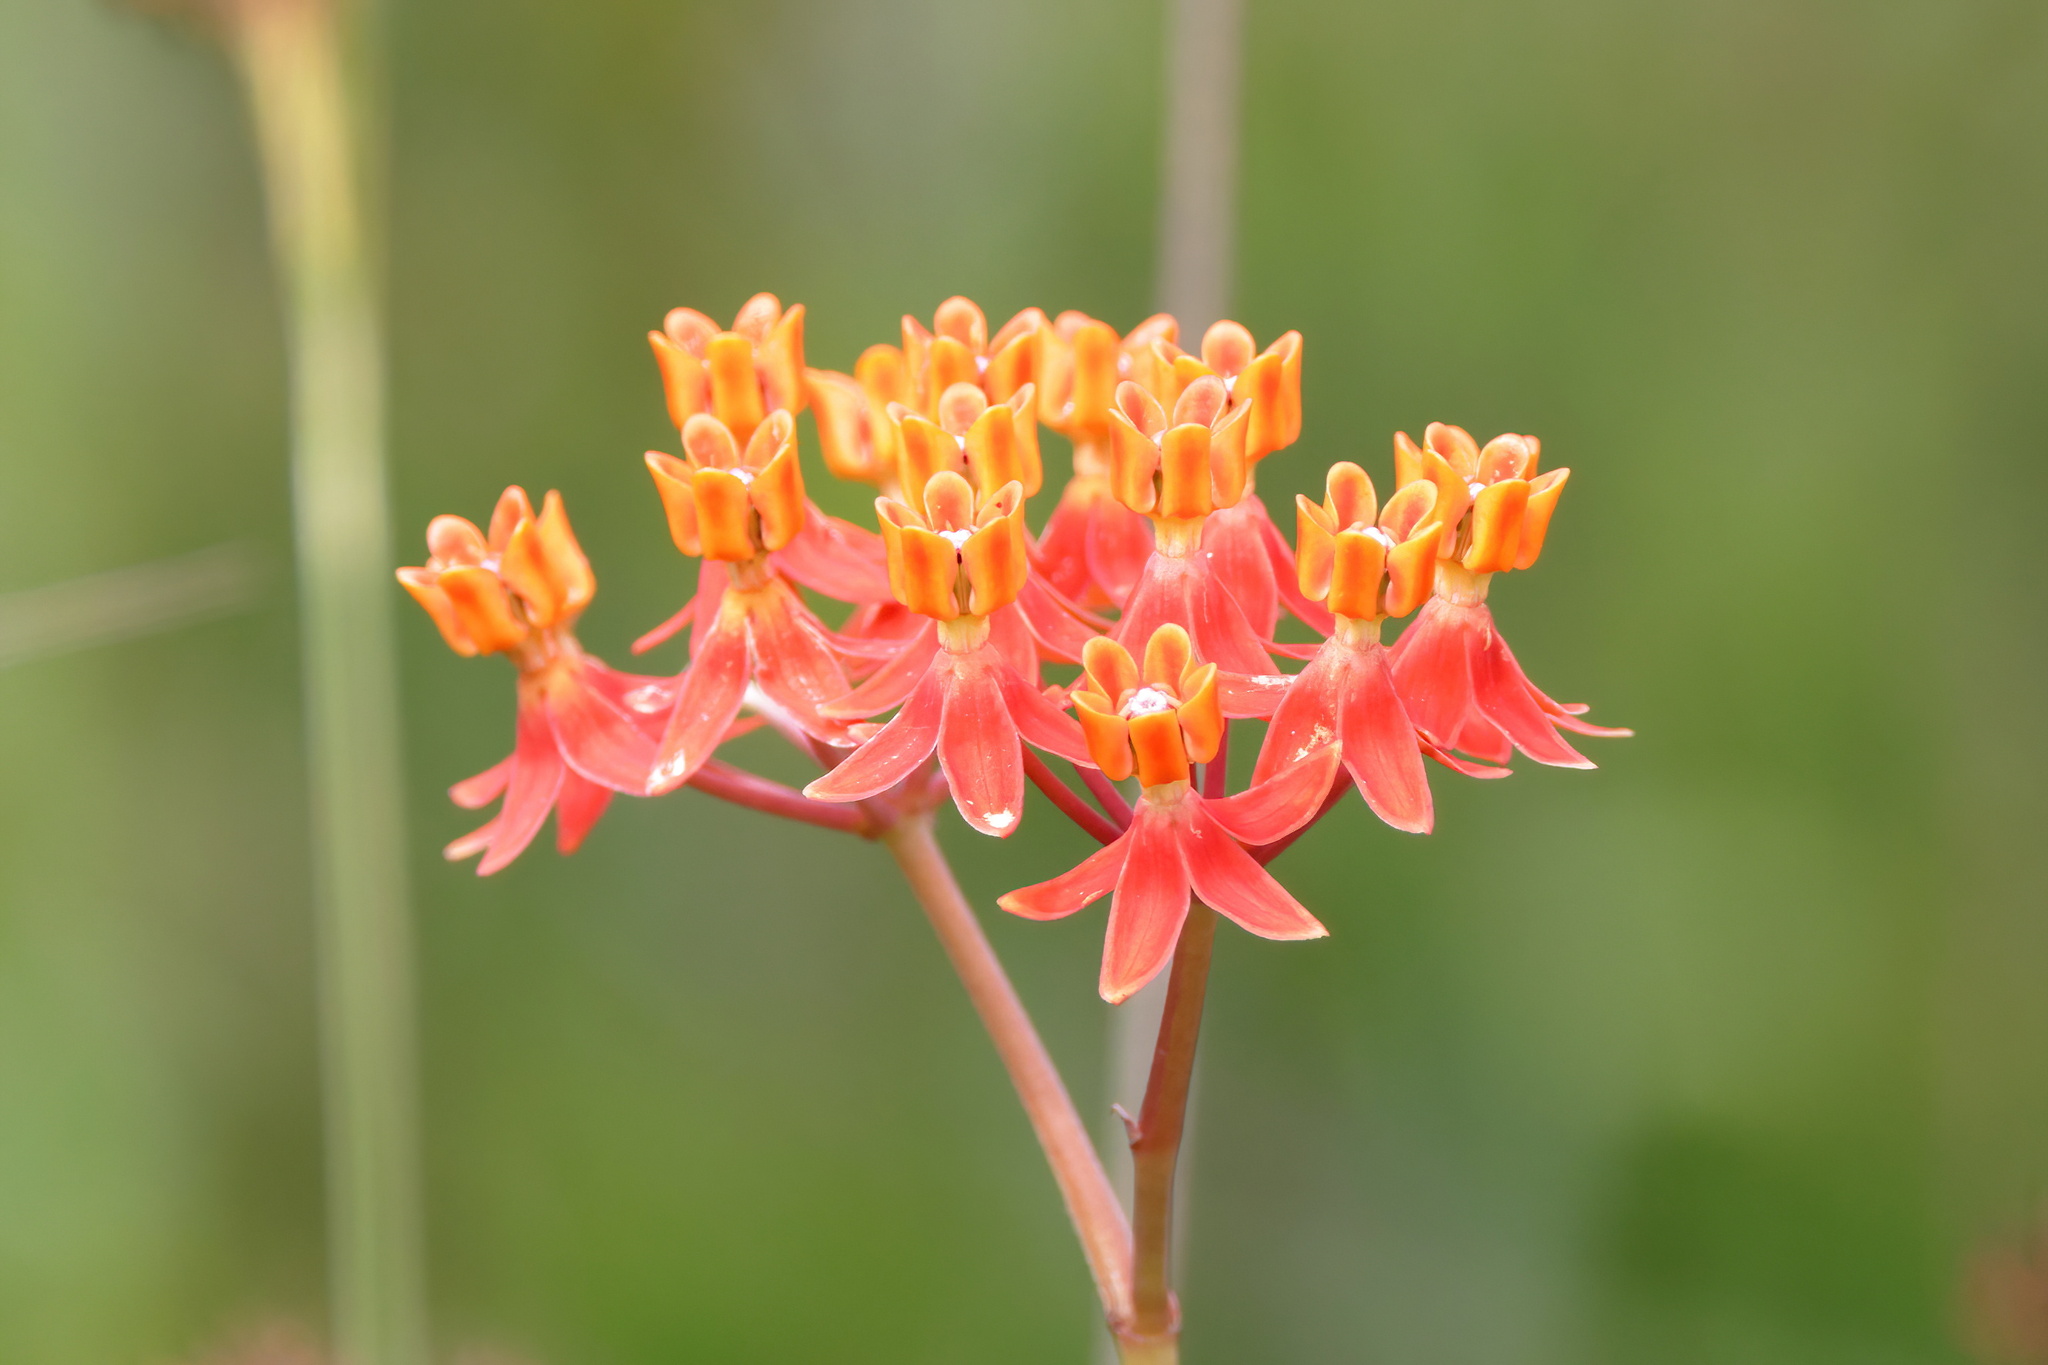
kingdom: Plantae
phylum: Tracheophyta
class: Magnoliopsida
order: Gentianales
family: Apocynaceae
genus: Asclepias
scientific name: Asclepias lanceolata
